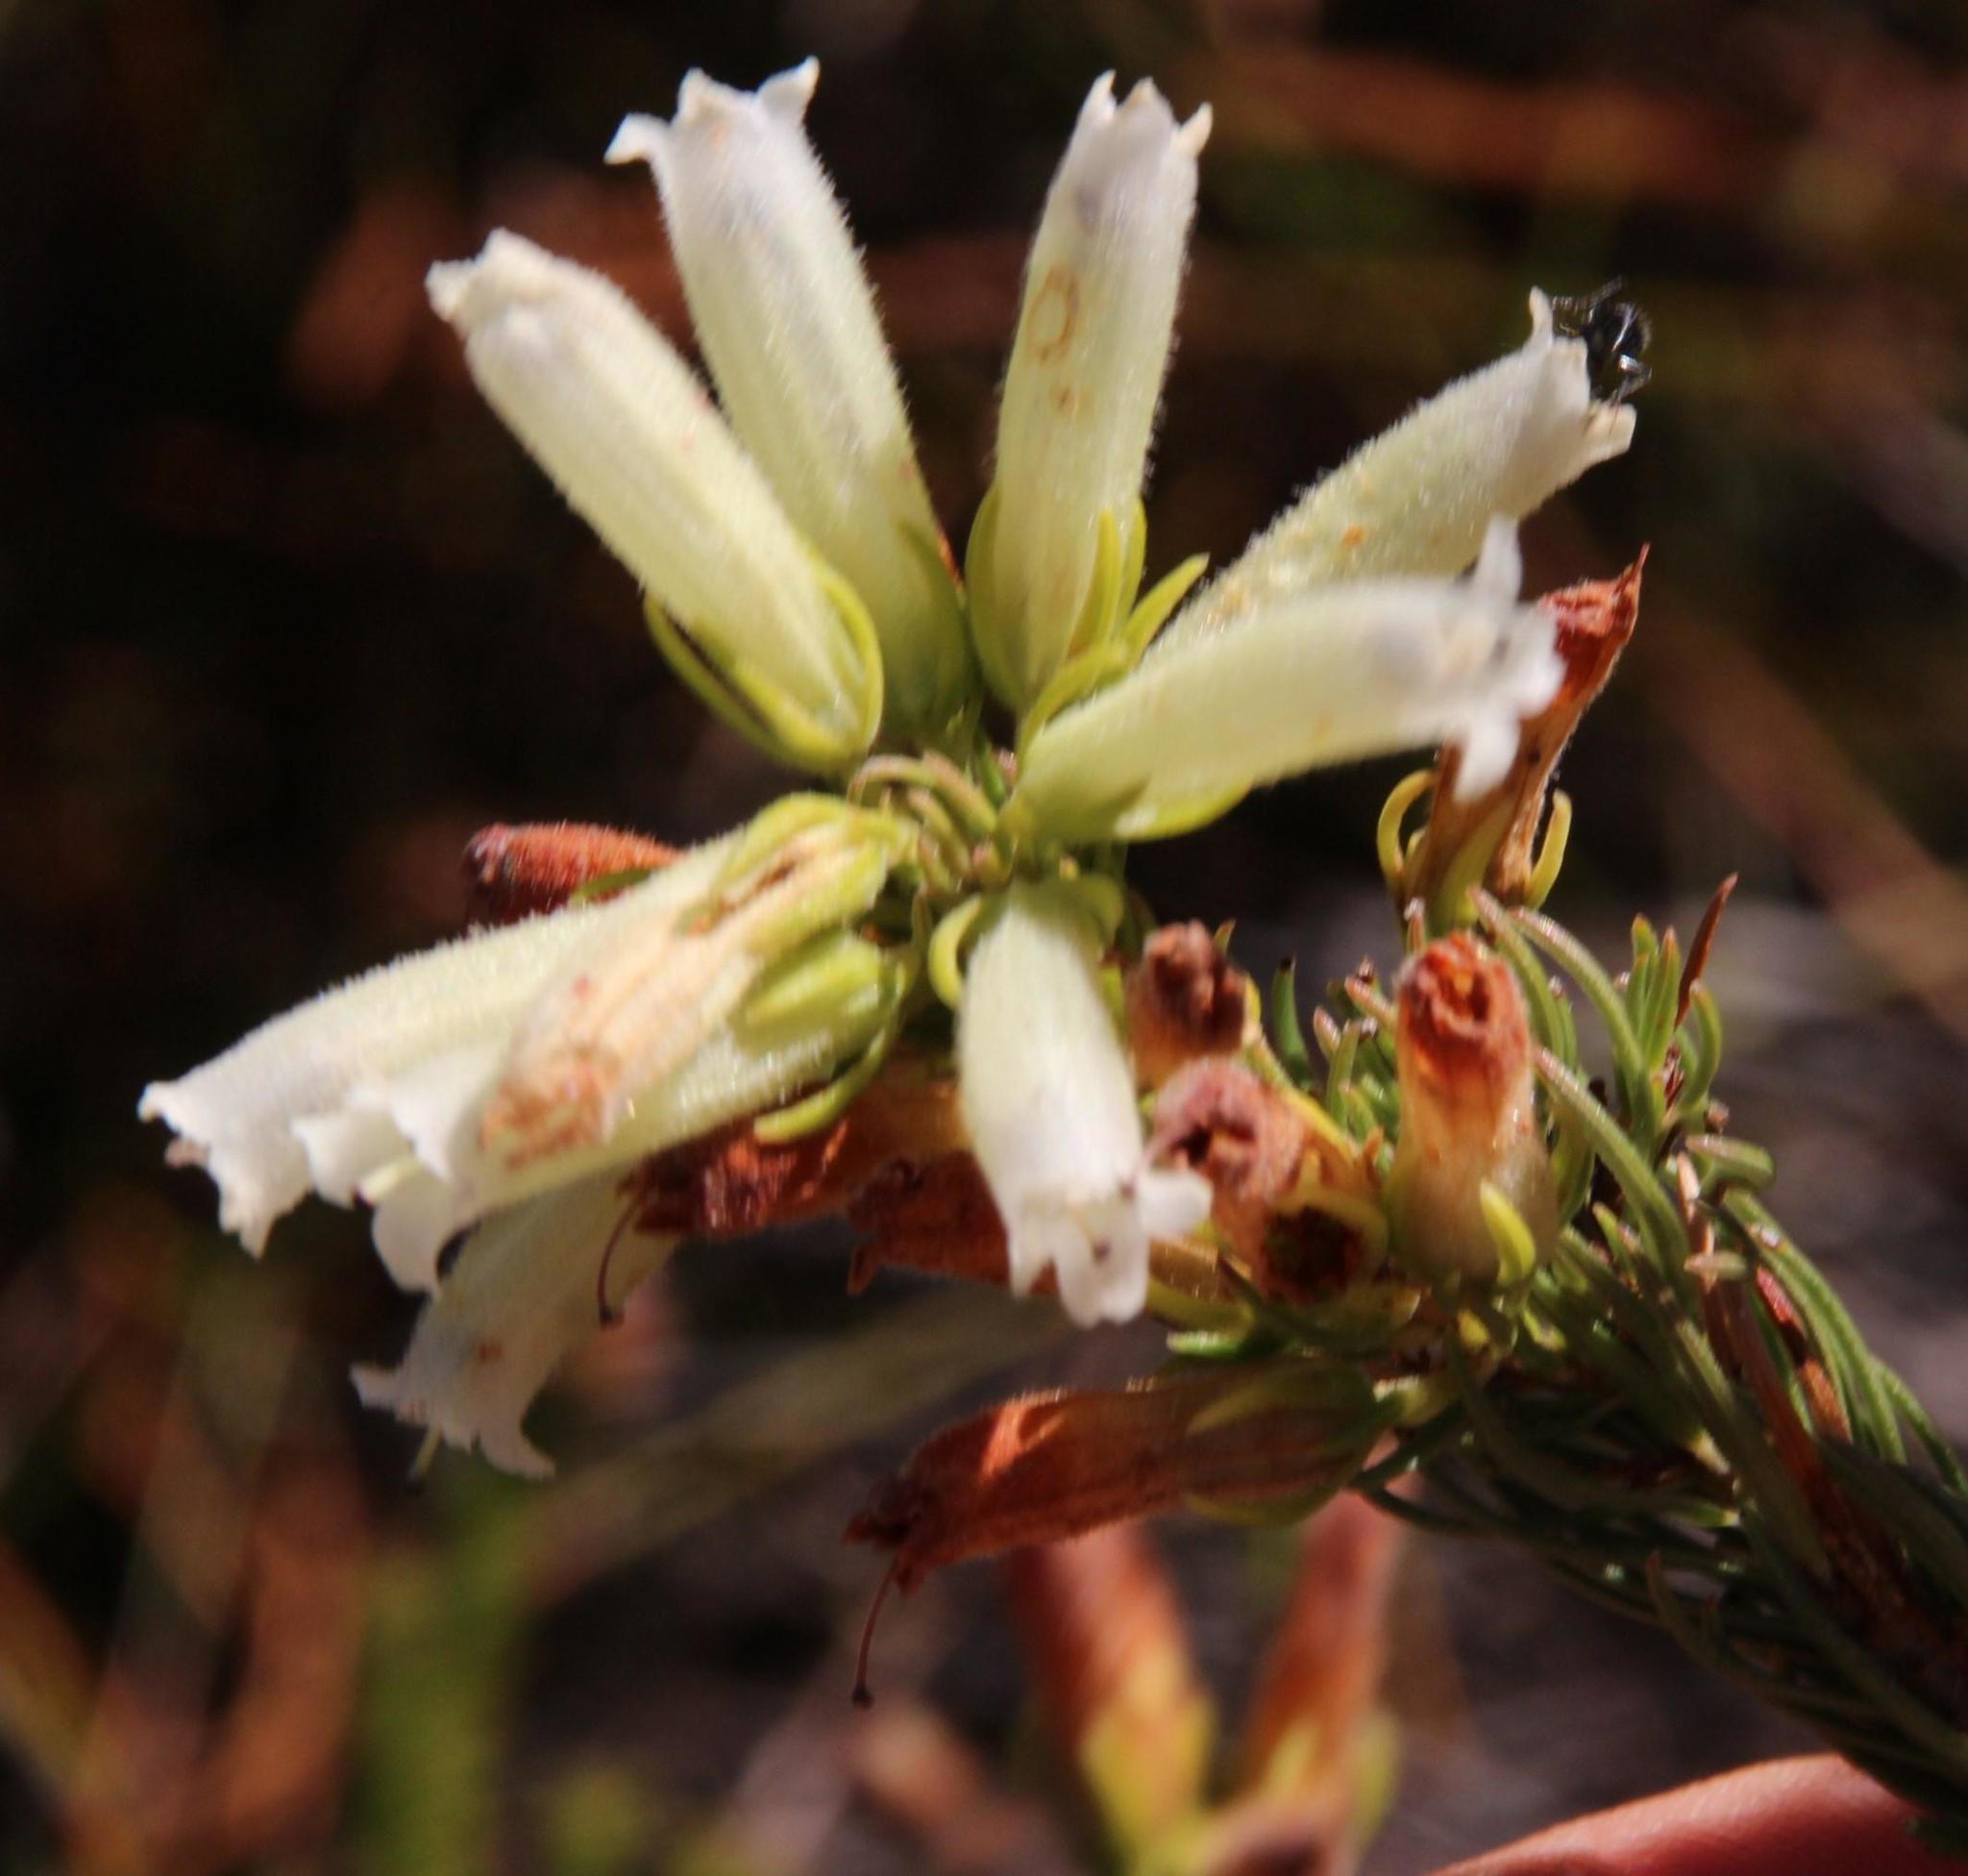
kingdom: Plantae
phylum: Tracheophyta
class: Magnoliopsida
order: Ericales
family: Ericaceae
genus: Erica
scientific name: Erica viscaria
